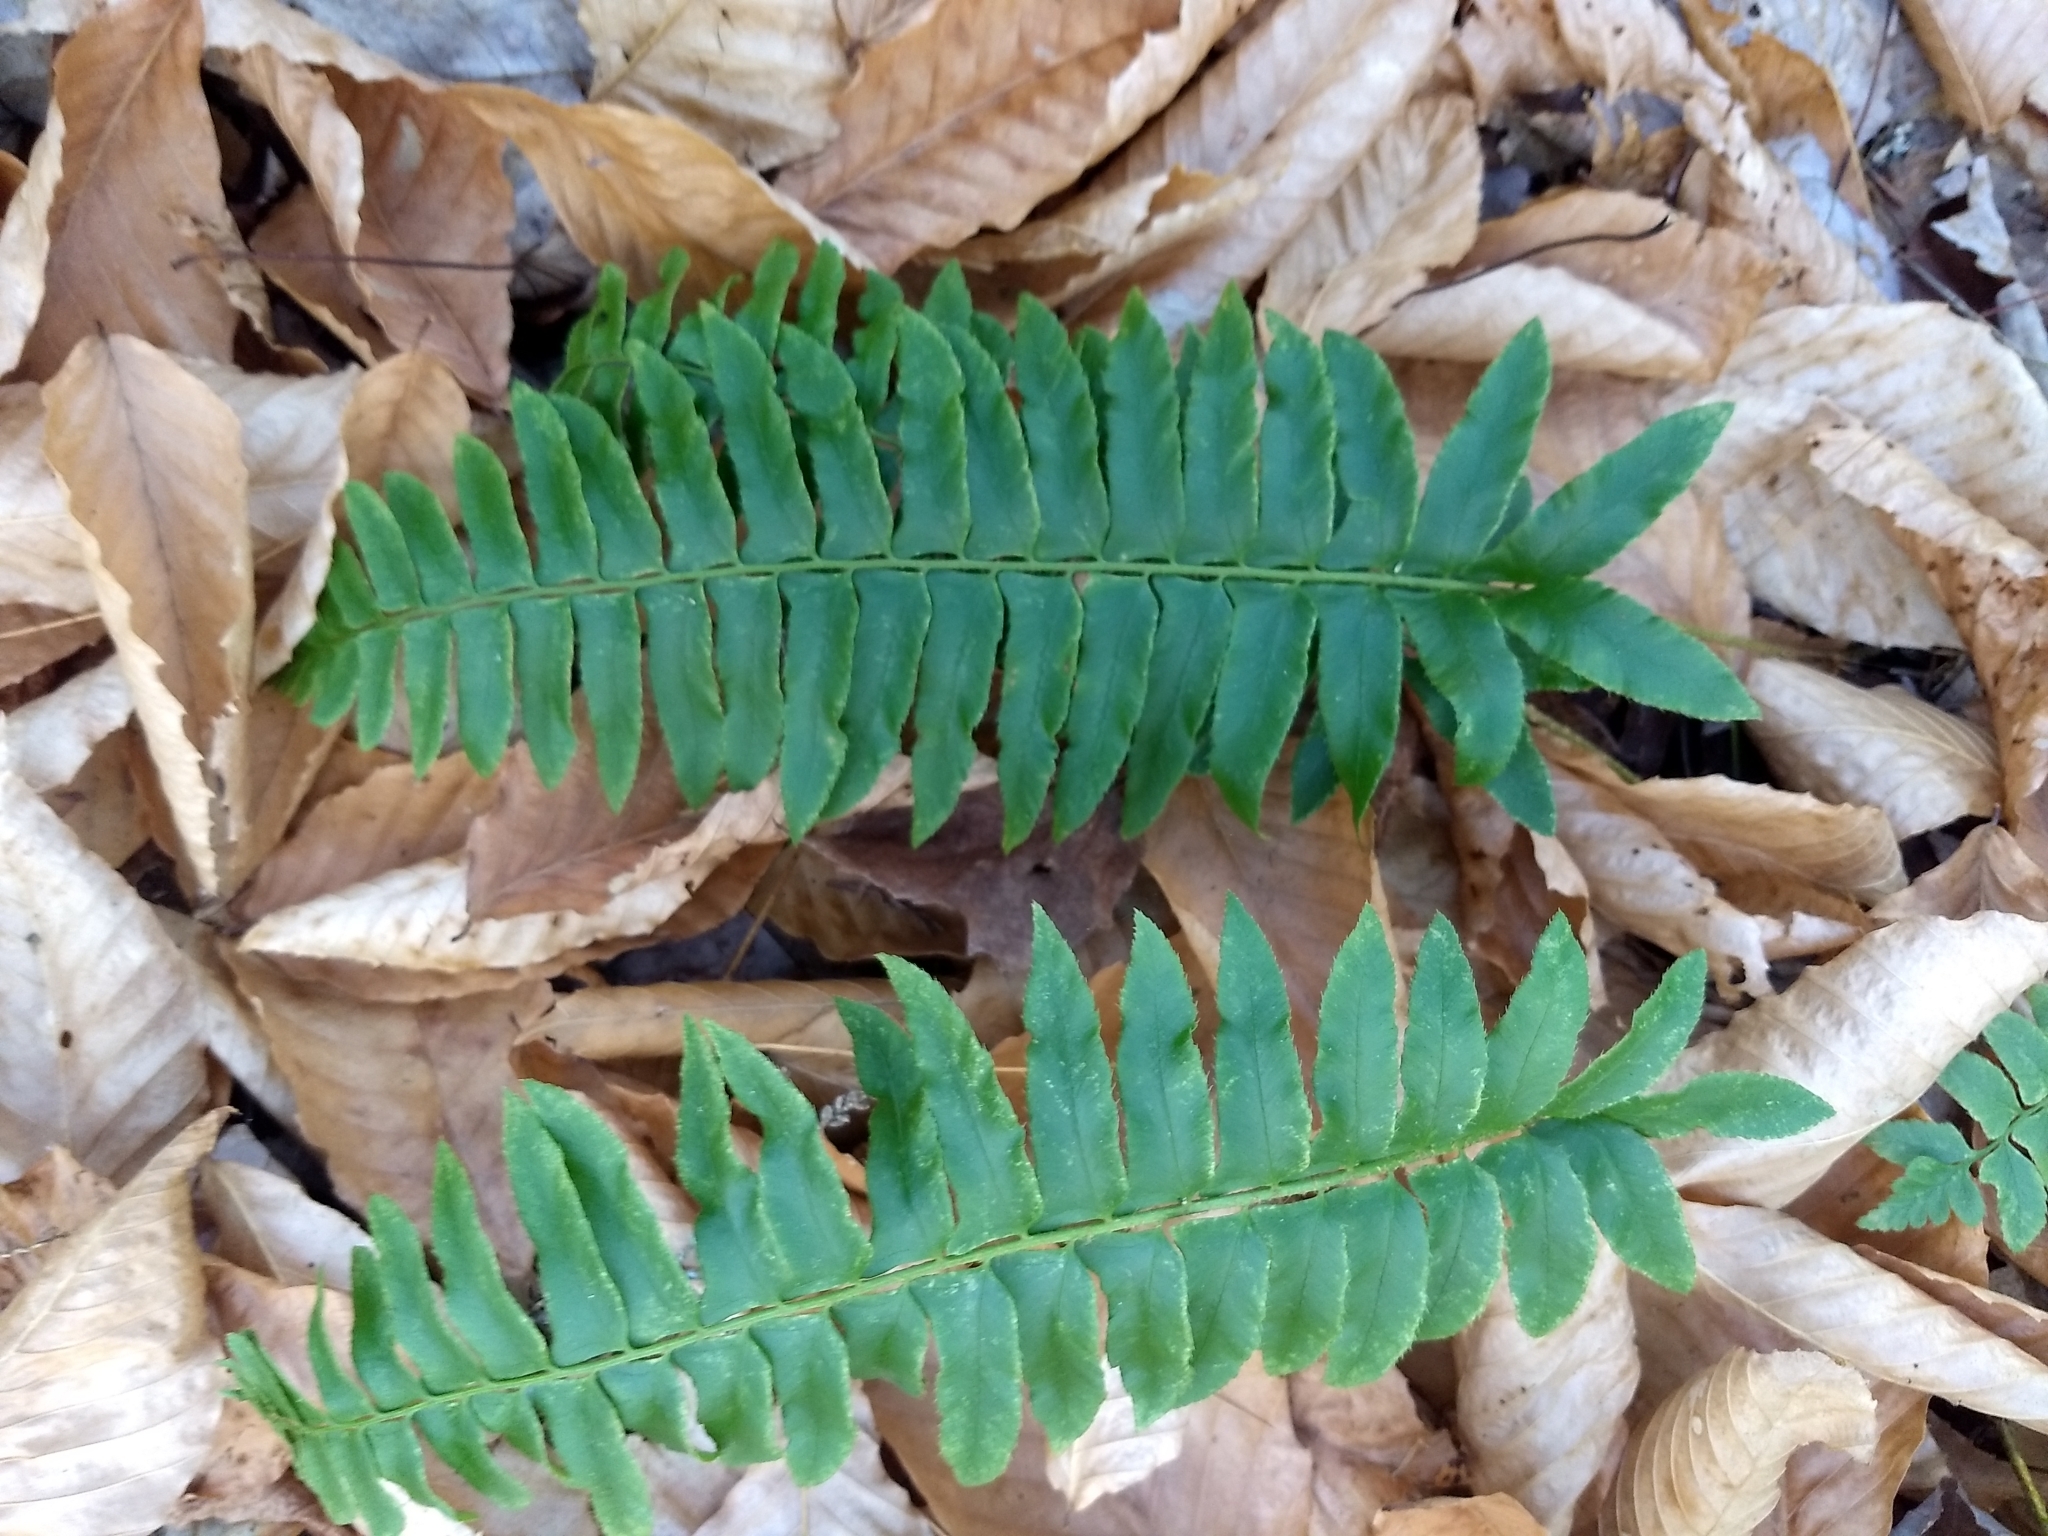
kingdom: Plantae
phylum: Tracheophyta
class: Polypodiopsida
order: Polypodiales
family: Dryopteridaceae
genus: Polystichum
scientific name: Polystichum acrostichoides
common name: Christmas fern
